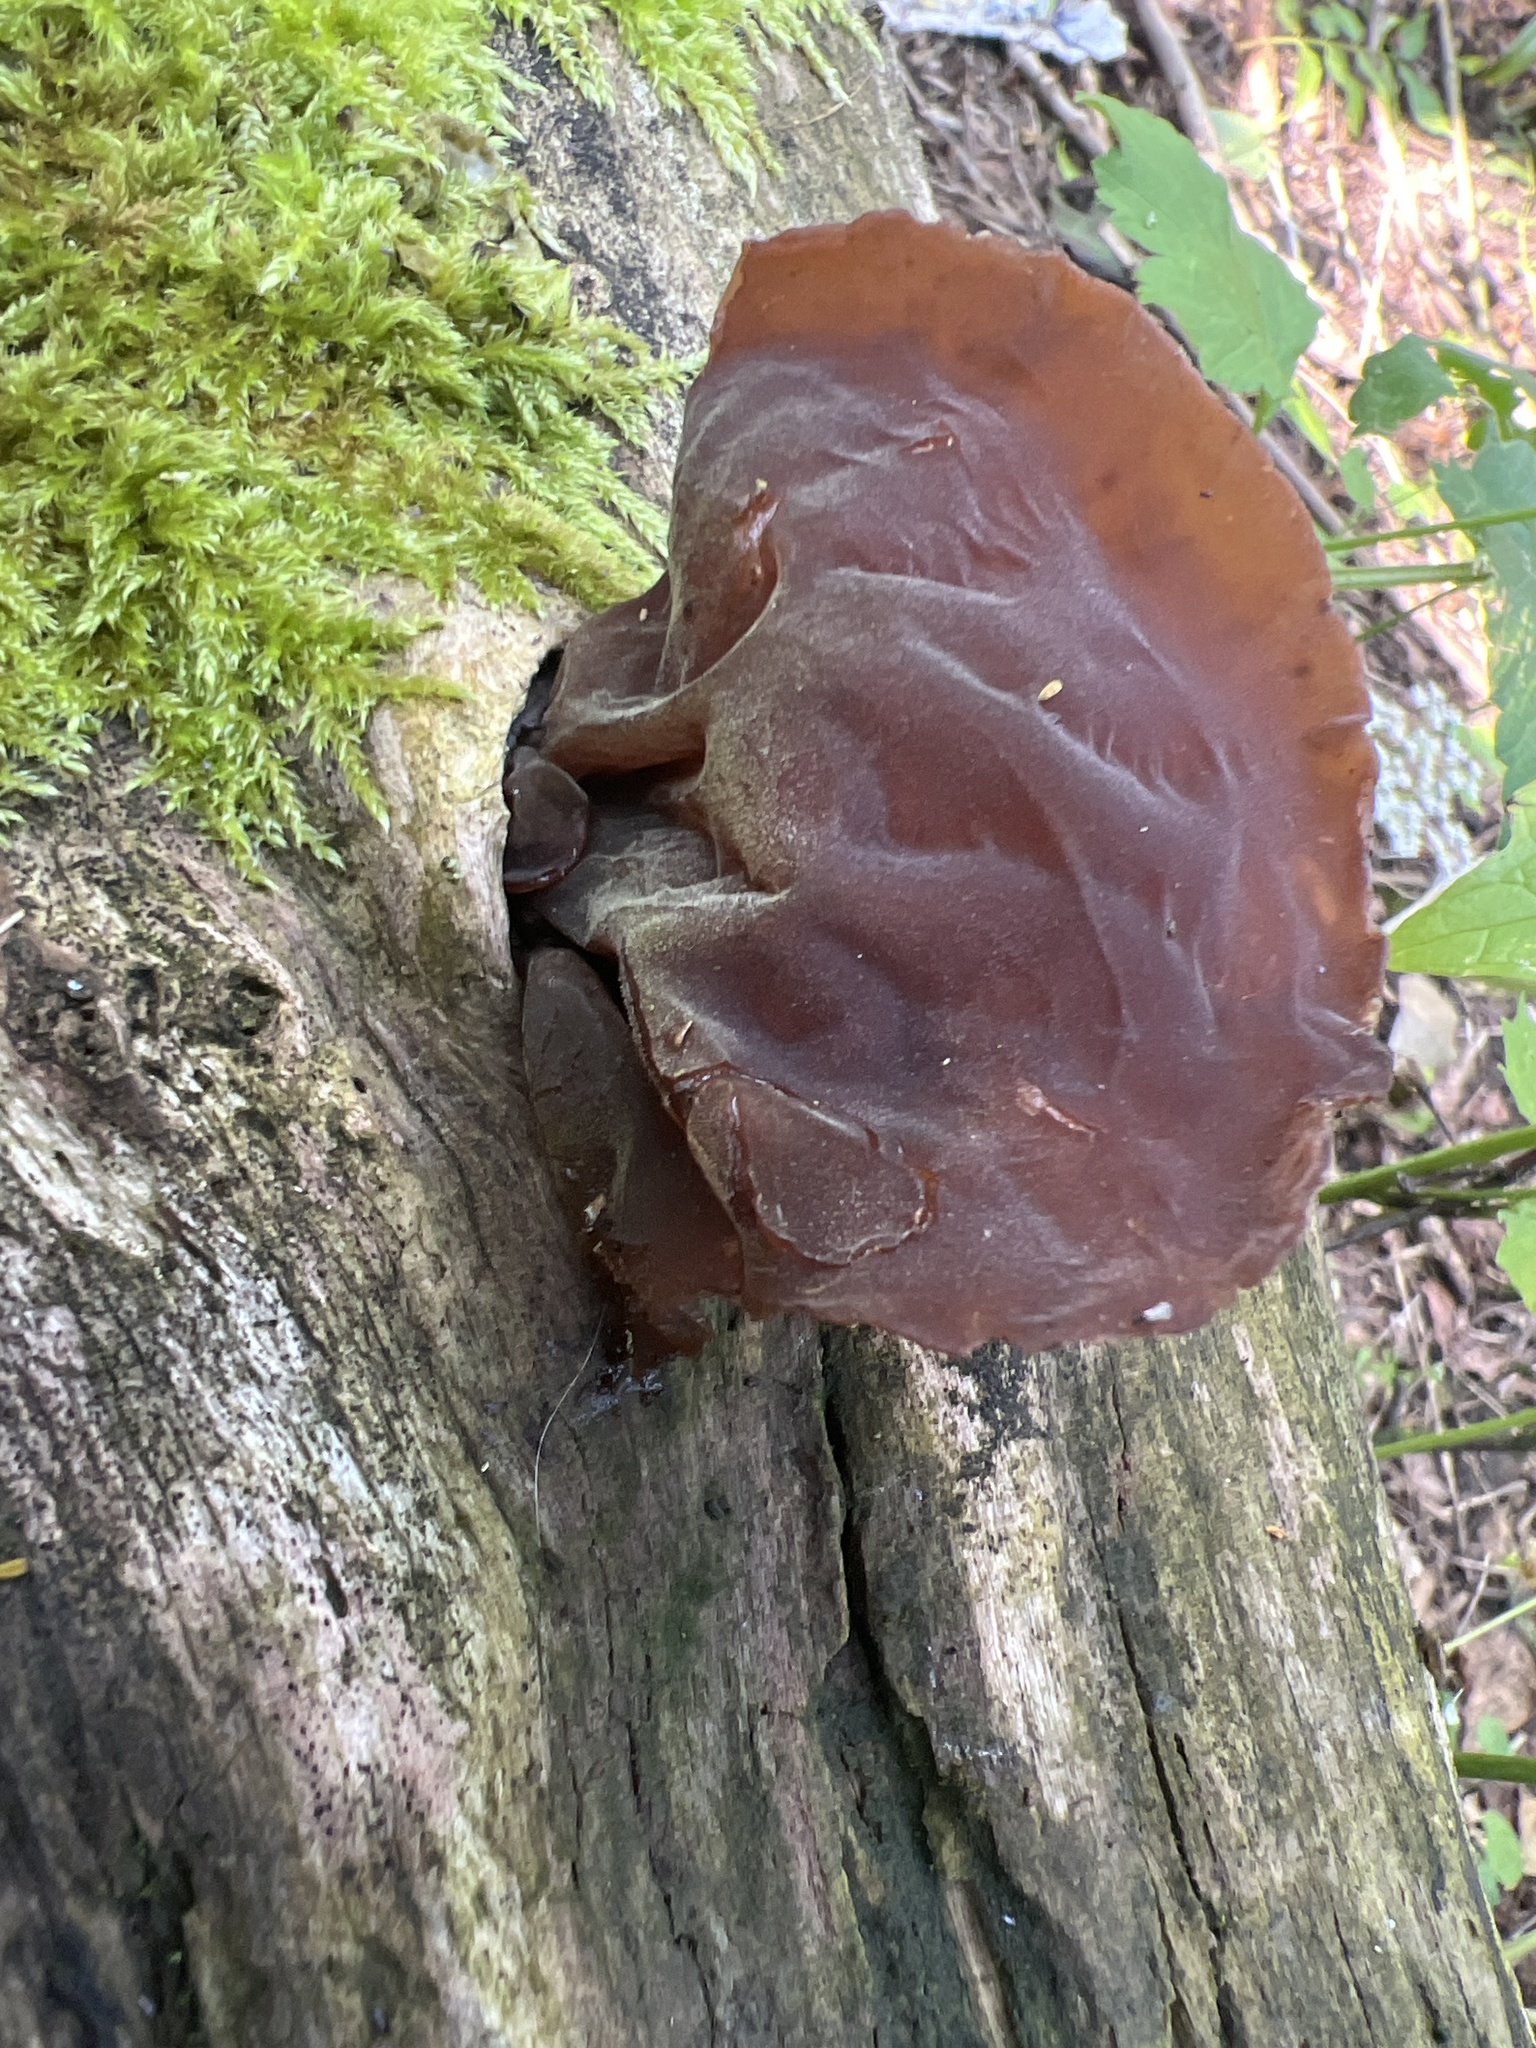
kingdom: Fungi
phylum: Basidiomycota
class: Agaricomycetes
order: Auriculariales
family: Auriculariaceae
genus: Auricularia
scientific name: Auricularia auricula-judae
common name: Jelly ear
